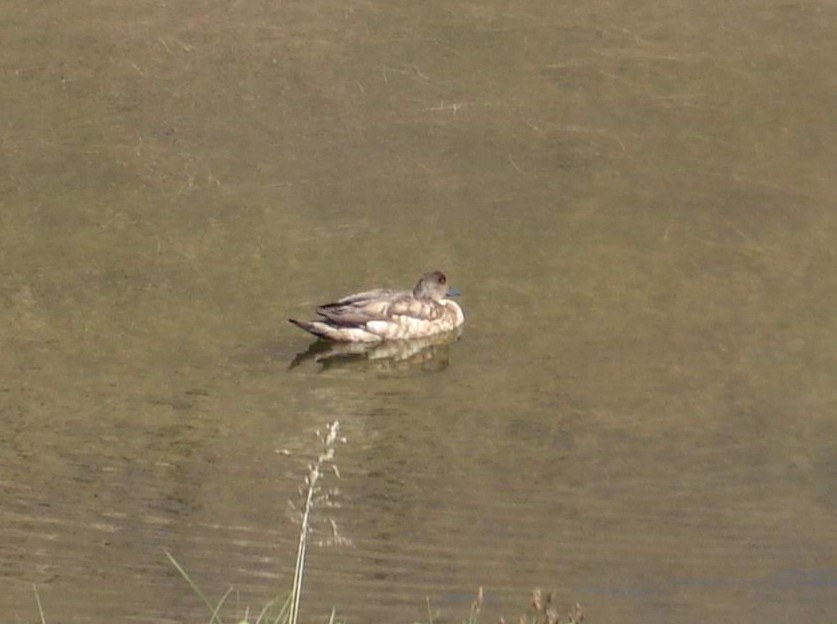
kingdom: Animalia
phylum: Chordata
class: Aves
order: Anseriformes
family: Anatidae
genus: Lophonetta
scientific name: Lophonetta specularioides
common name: Crested duck
